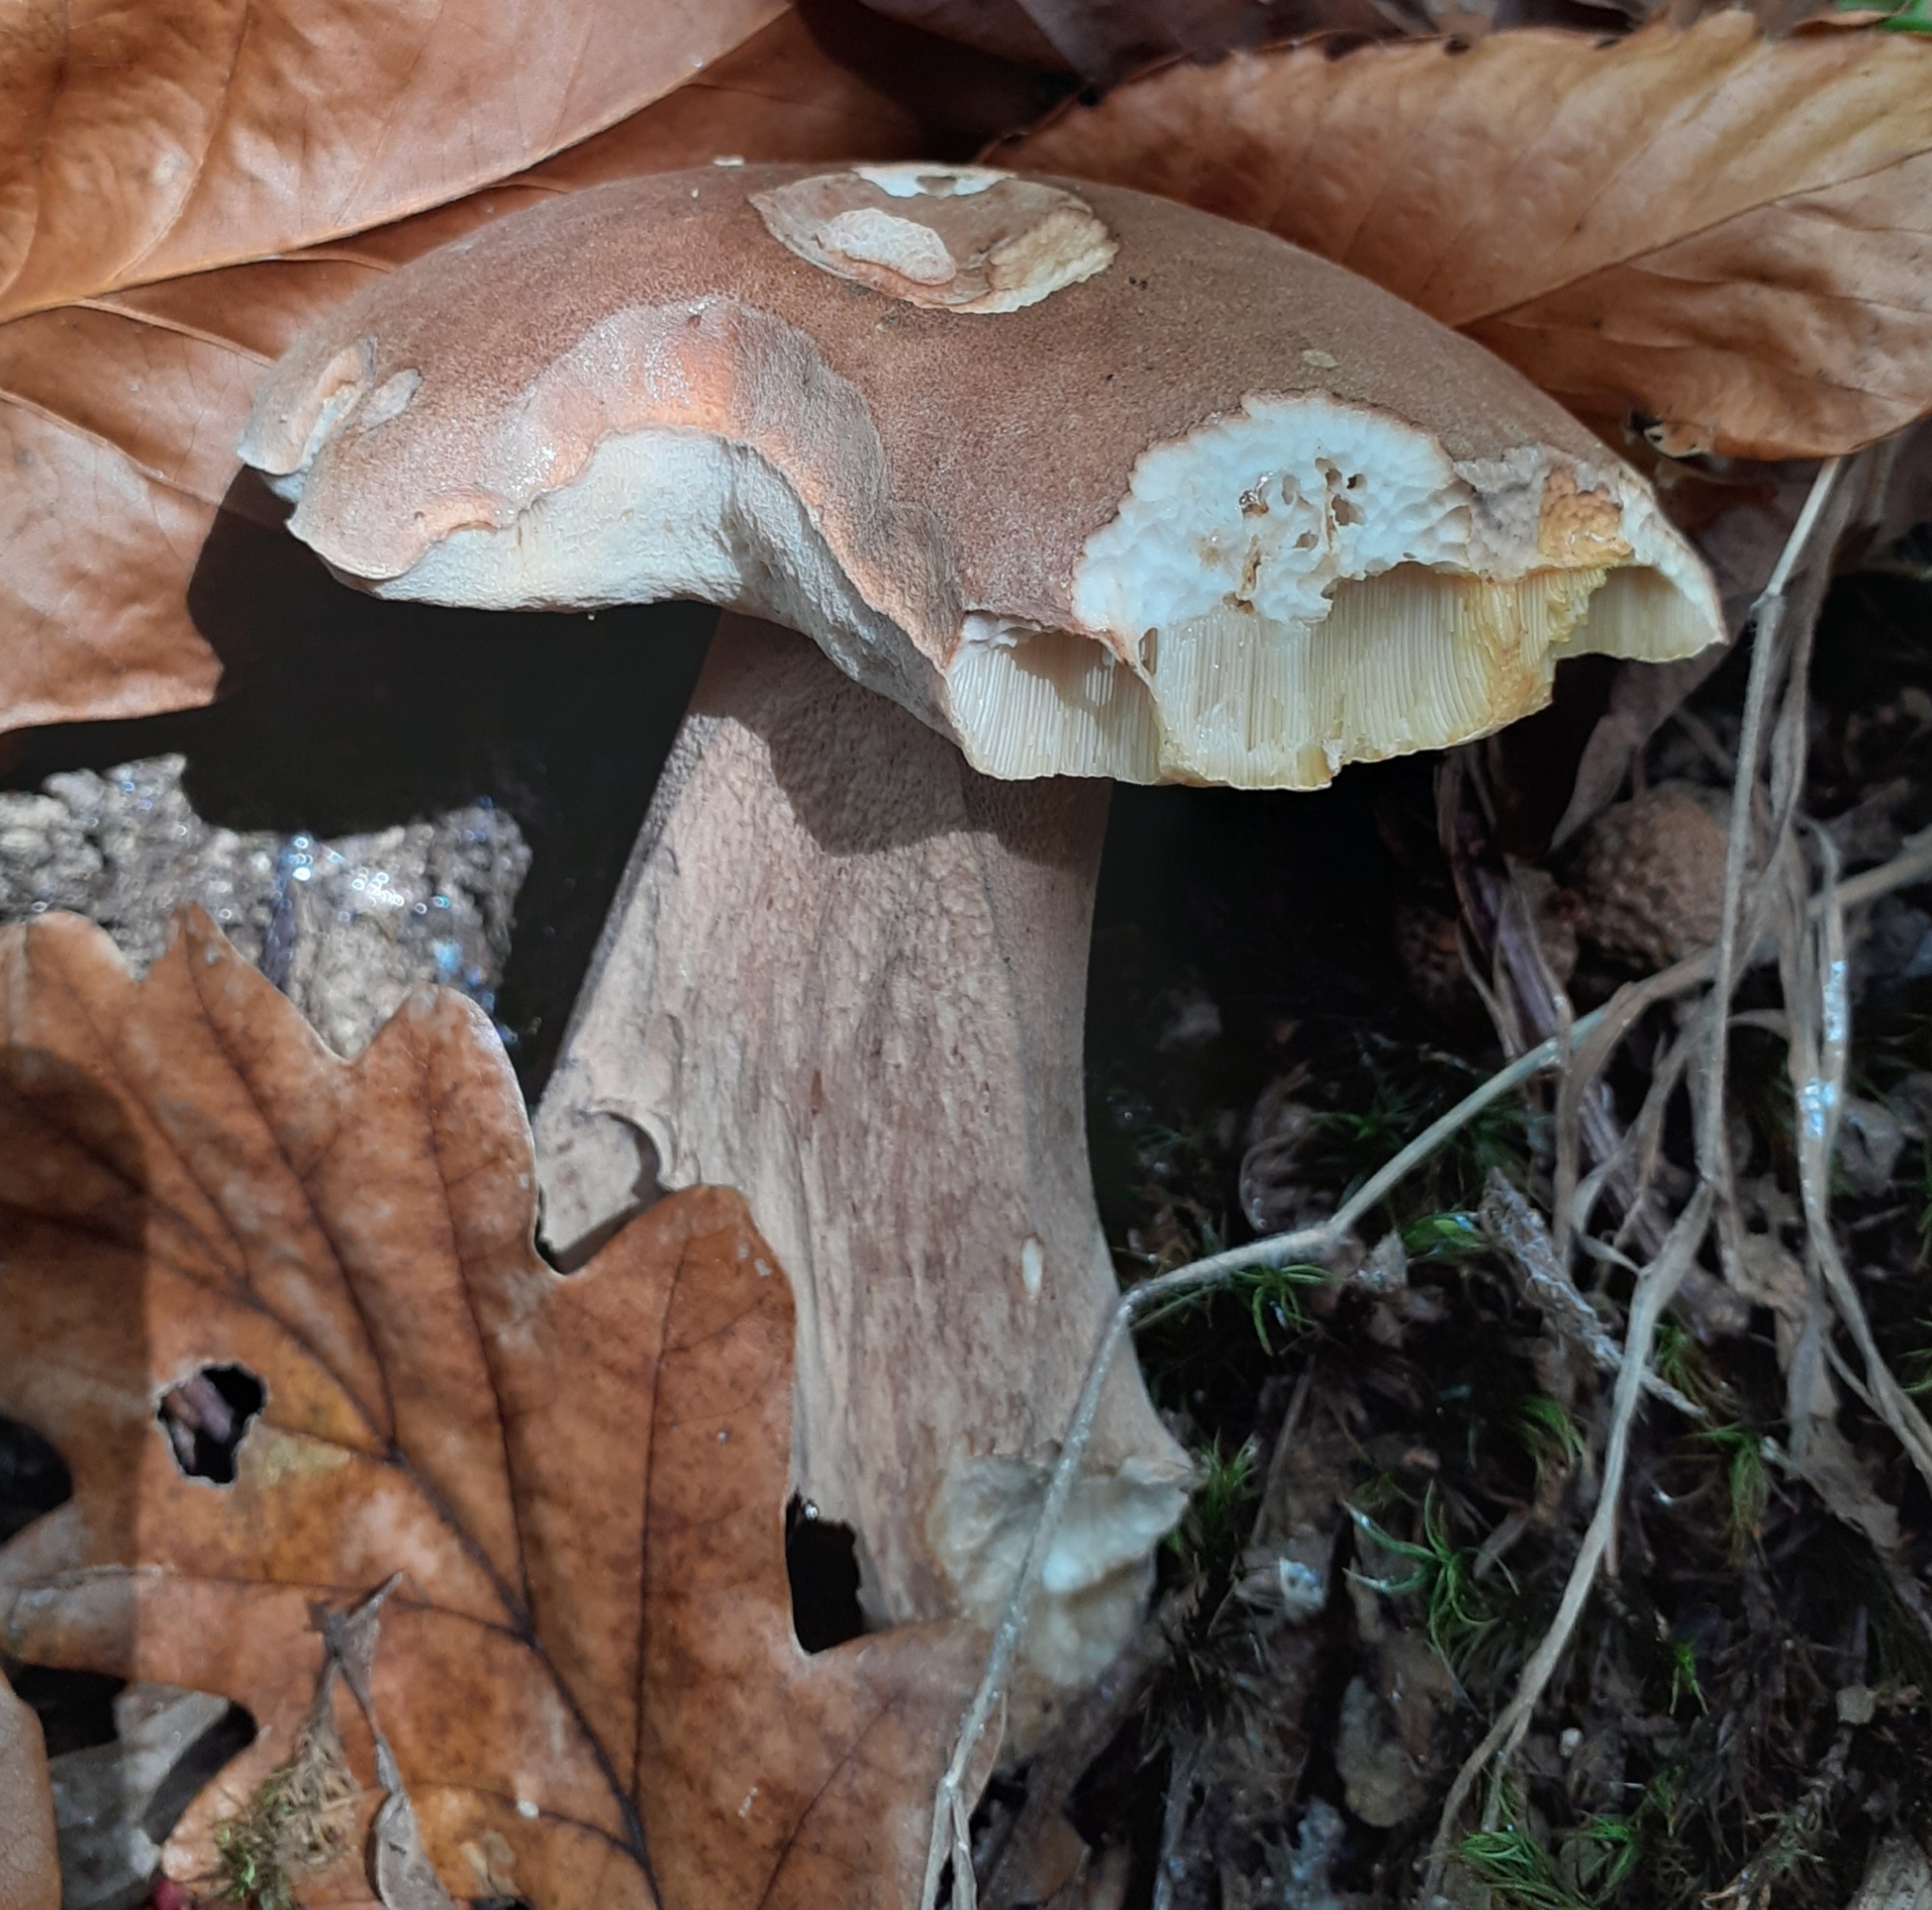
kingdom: Fungi
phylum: Basidiomycota
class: Agaricomycetes
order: Boletales
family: Boletaceae
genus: Boletus
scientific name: Boletus reticulatus
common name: Summer bolete
